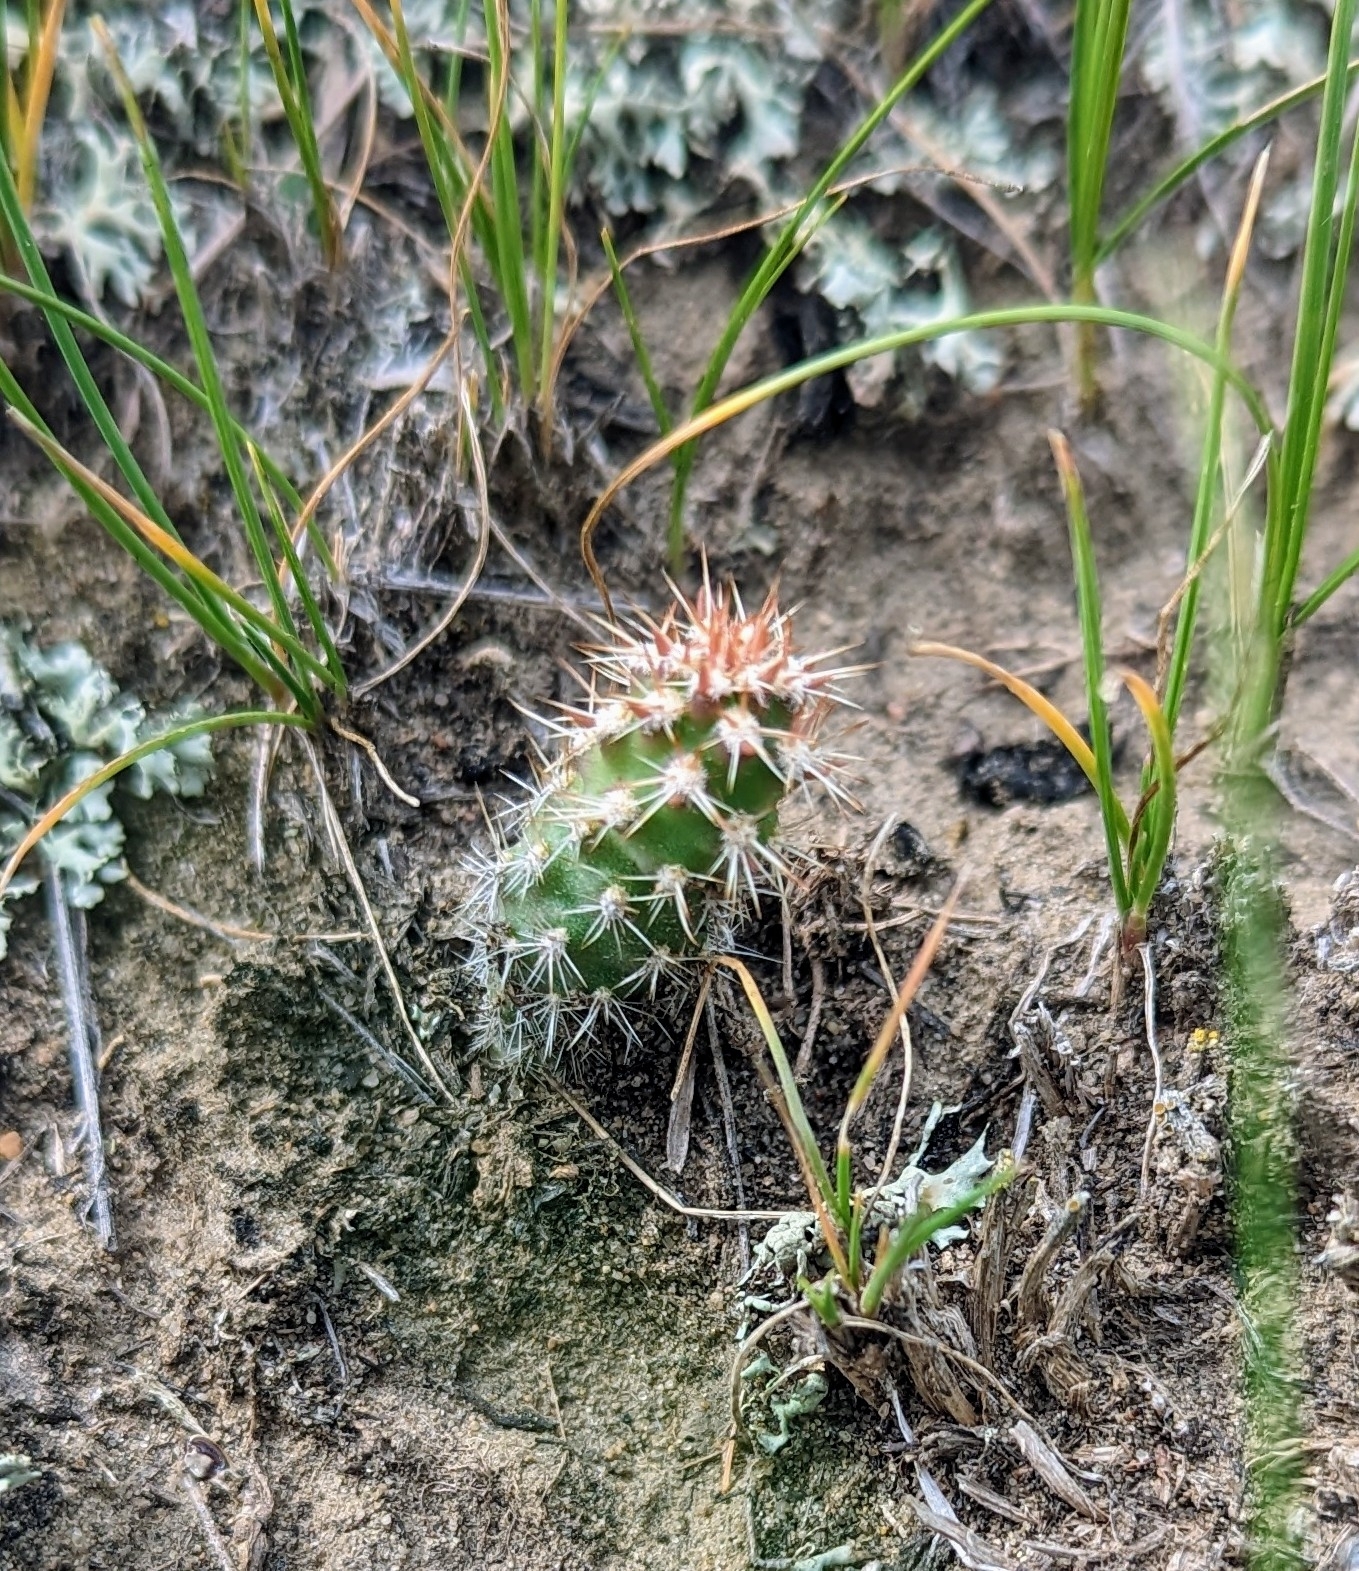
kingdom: Plantae
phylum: Tracheophyta
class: Magnoliopsida
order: Caryophyllales
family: Cactaceae
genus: Opuntia
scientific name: Opuntia
